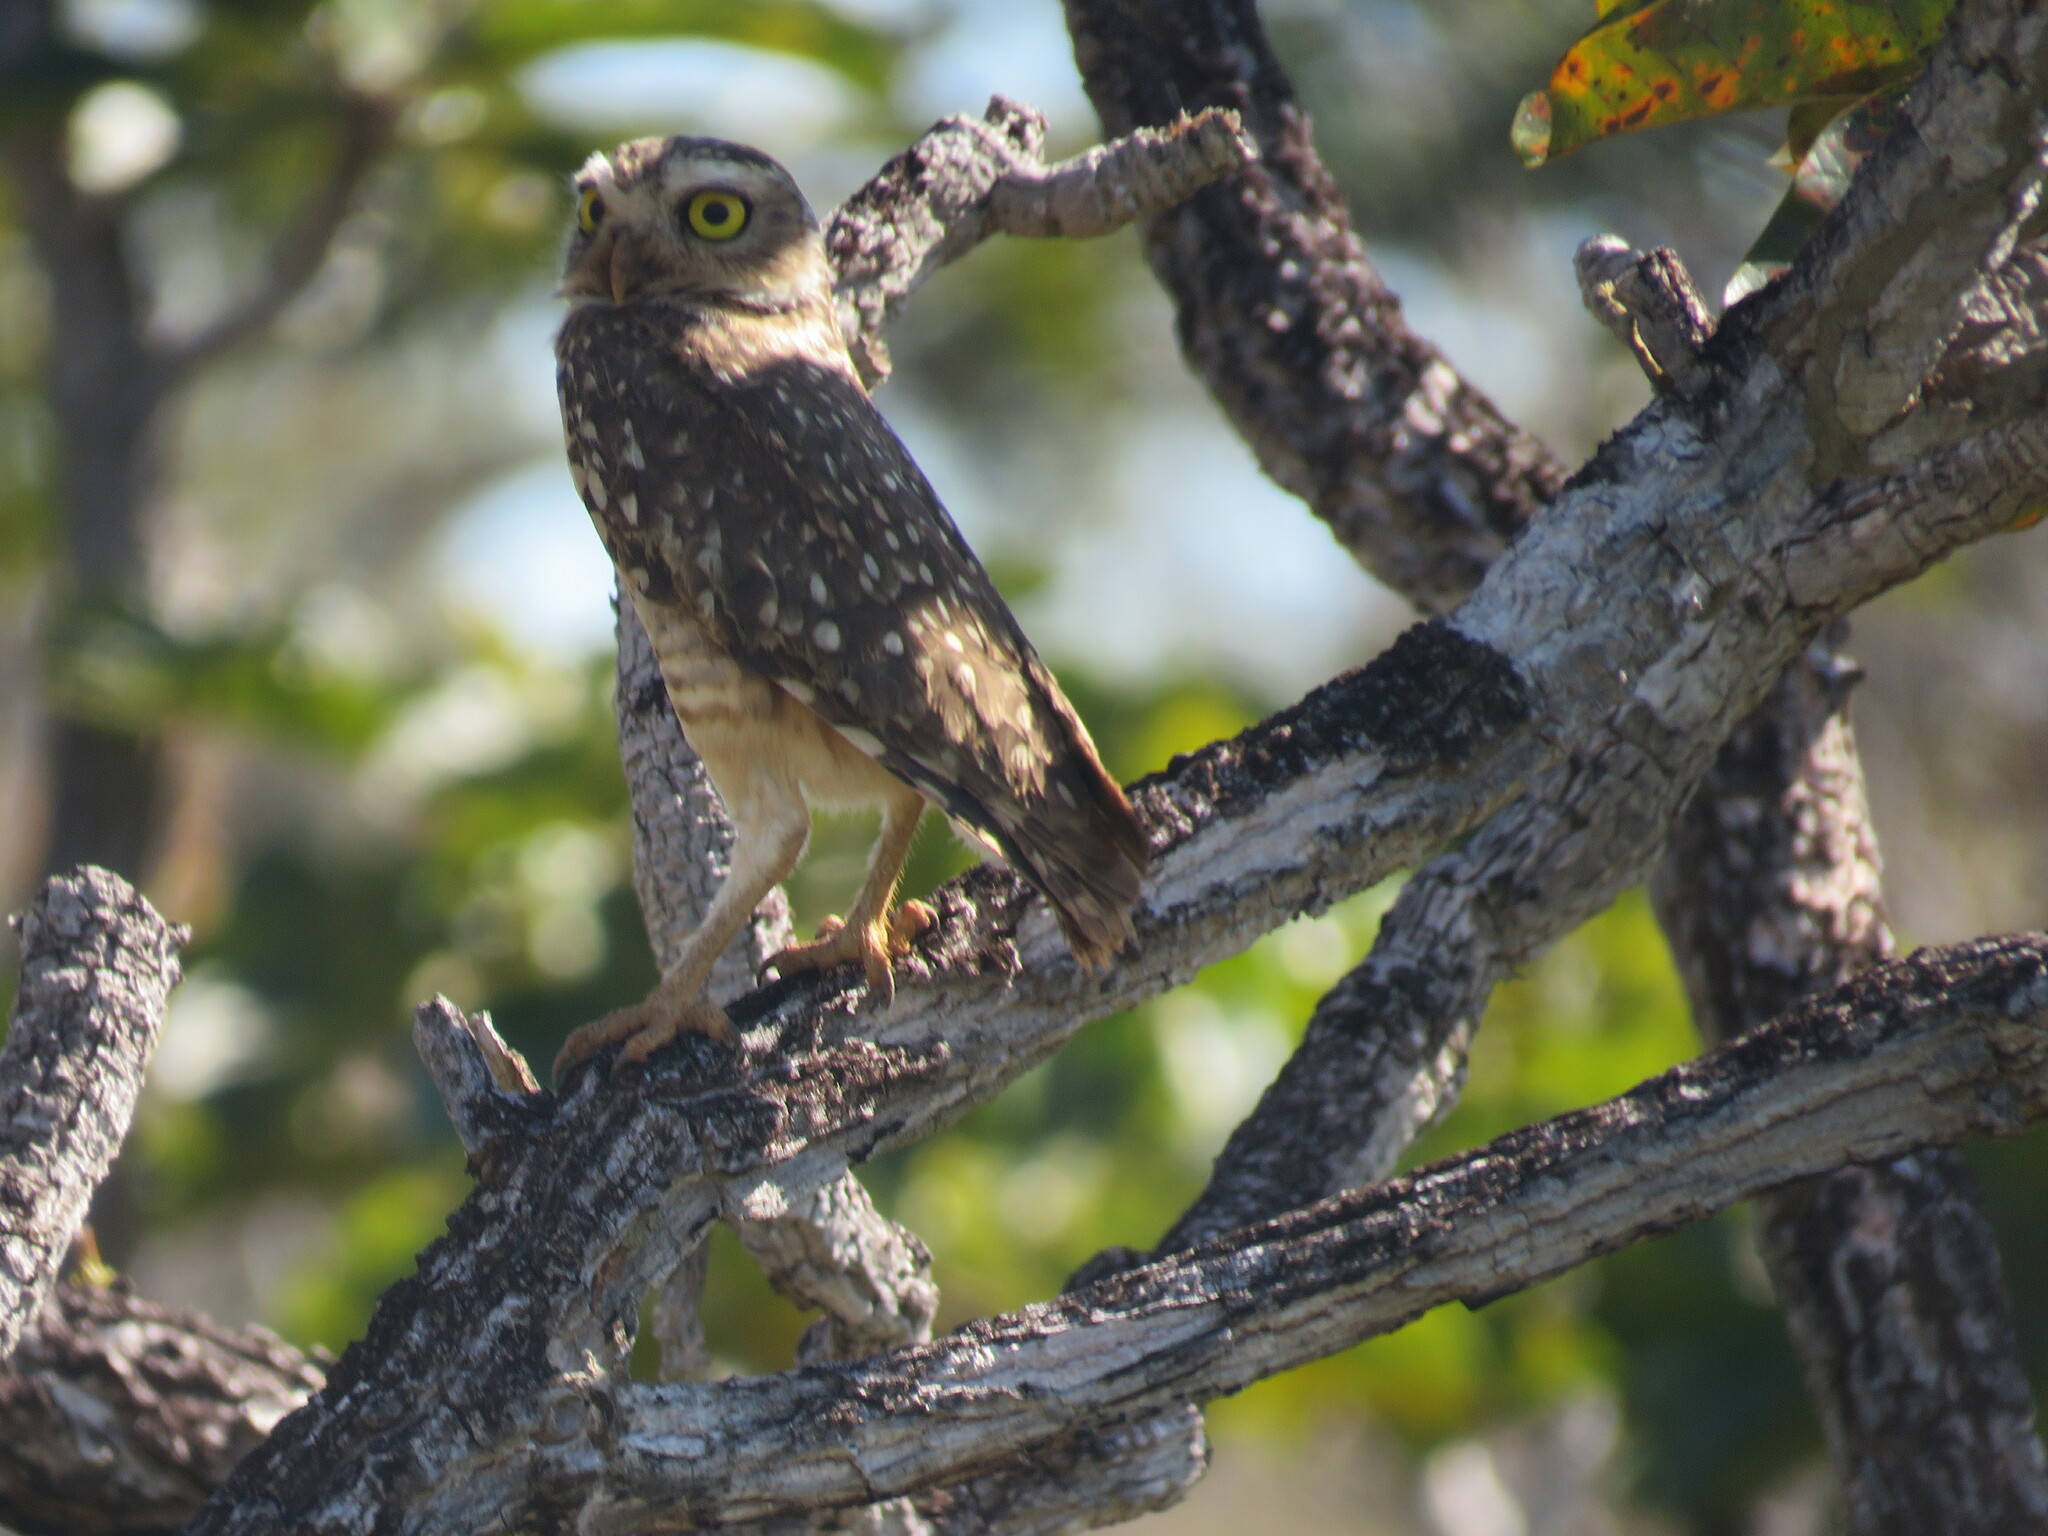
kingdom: Animalia
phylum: Chordata
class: Aves
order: Strigiformes
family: Strigidae
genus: Athene
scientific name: Athene cunicularia
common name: Burrowing owl
